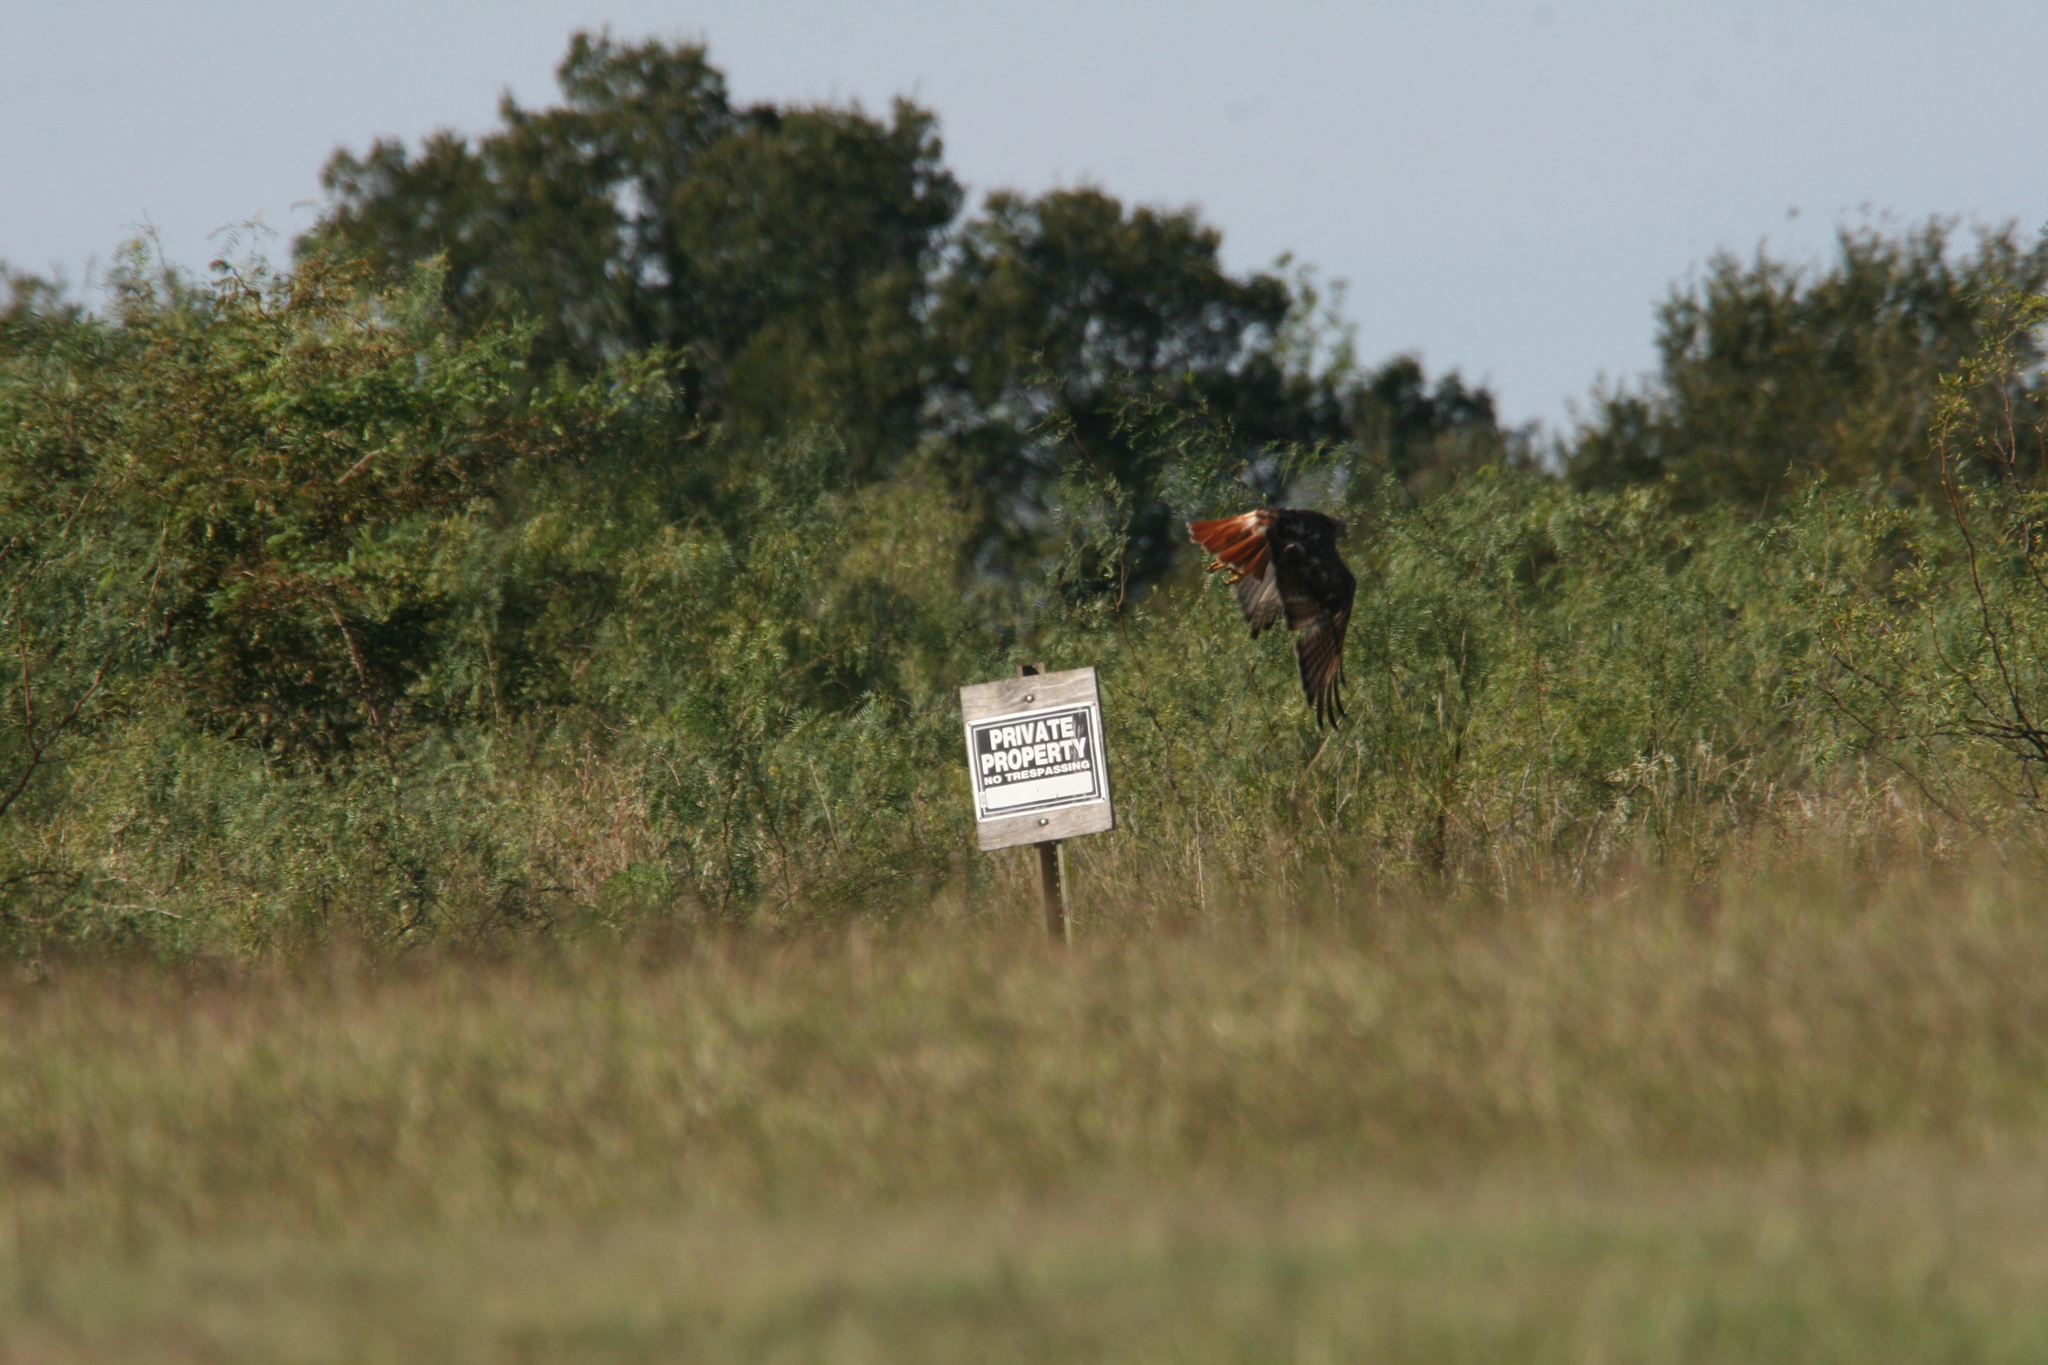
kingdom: Animalia
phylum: Chordata
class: Aves
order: Accipitriformes
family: Accipitridae
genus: Buteo
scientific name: Buteo jamaicensis
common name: Red-tailed hawk
